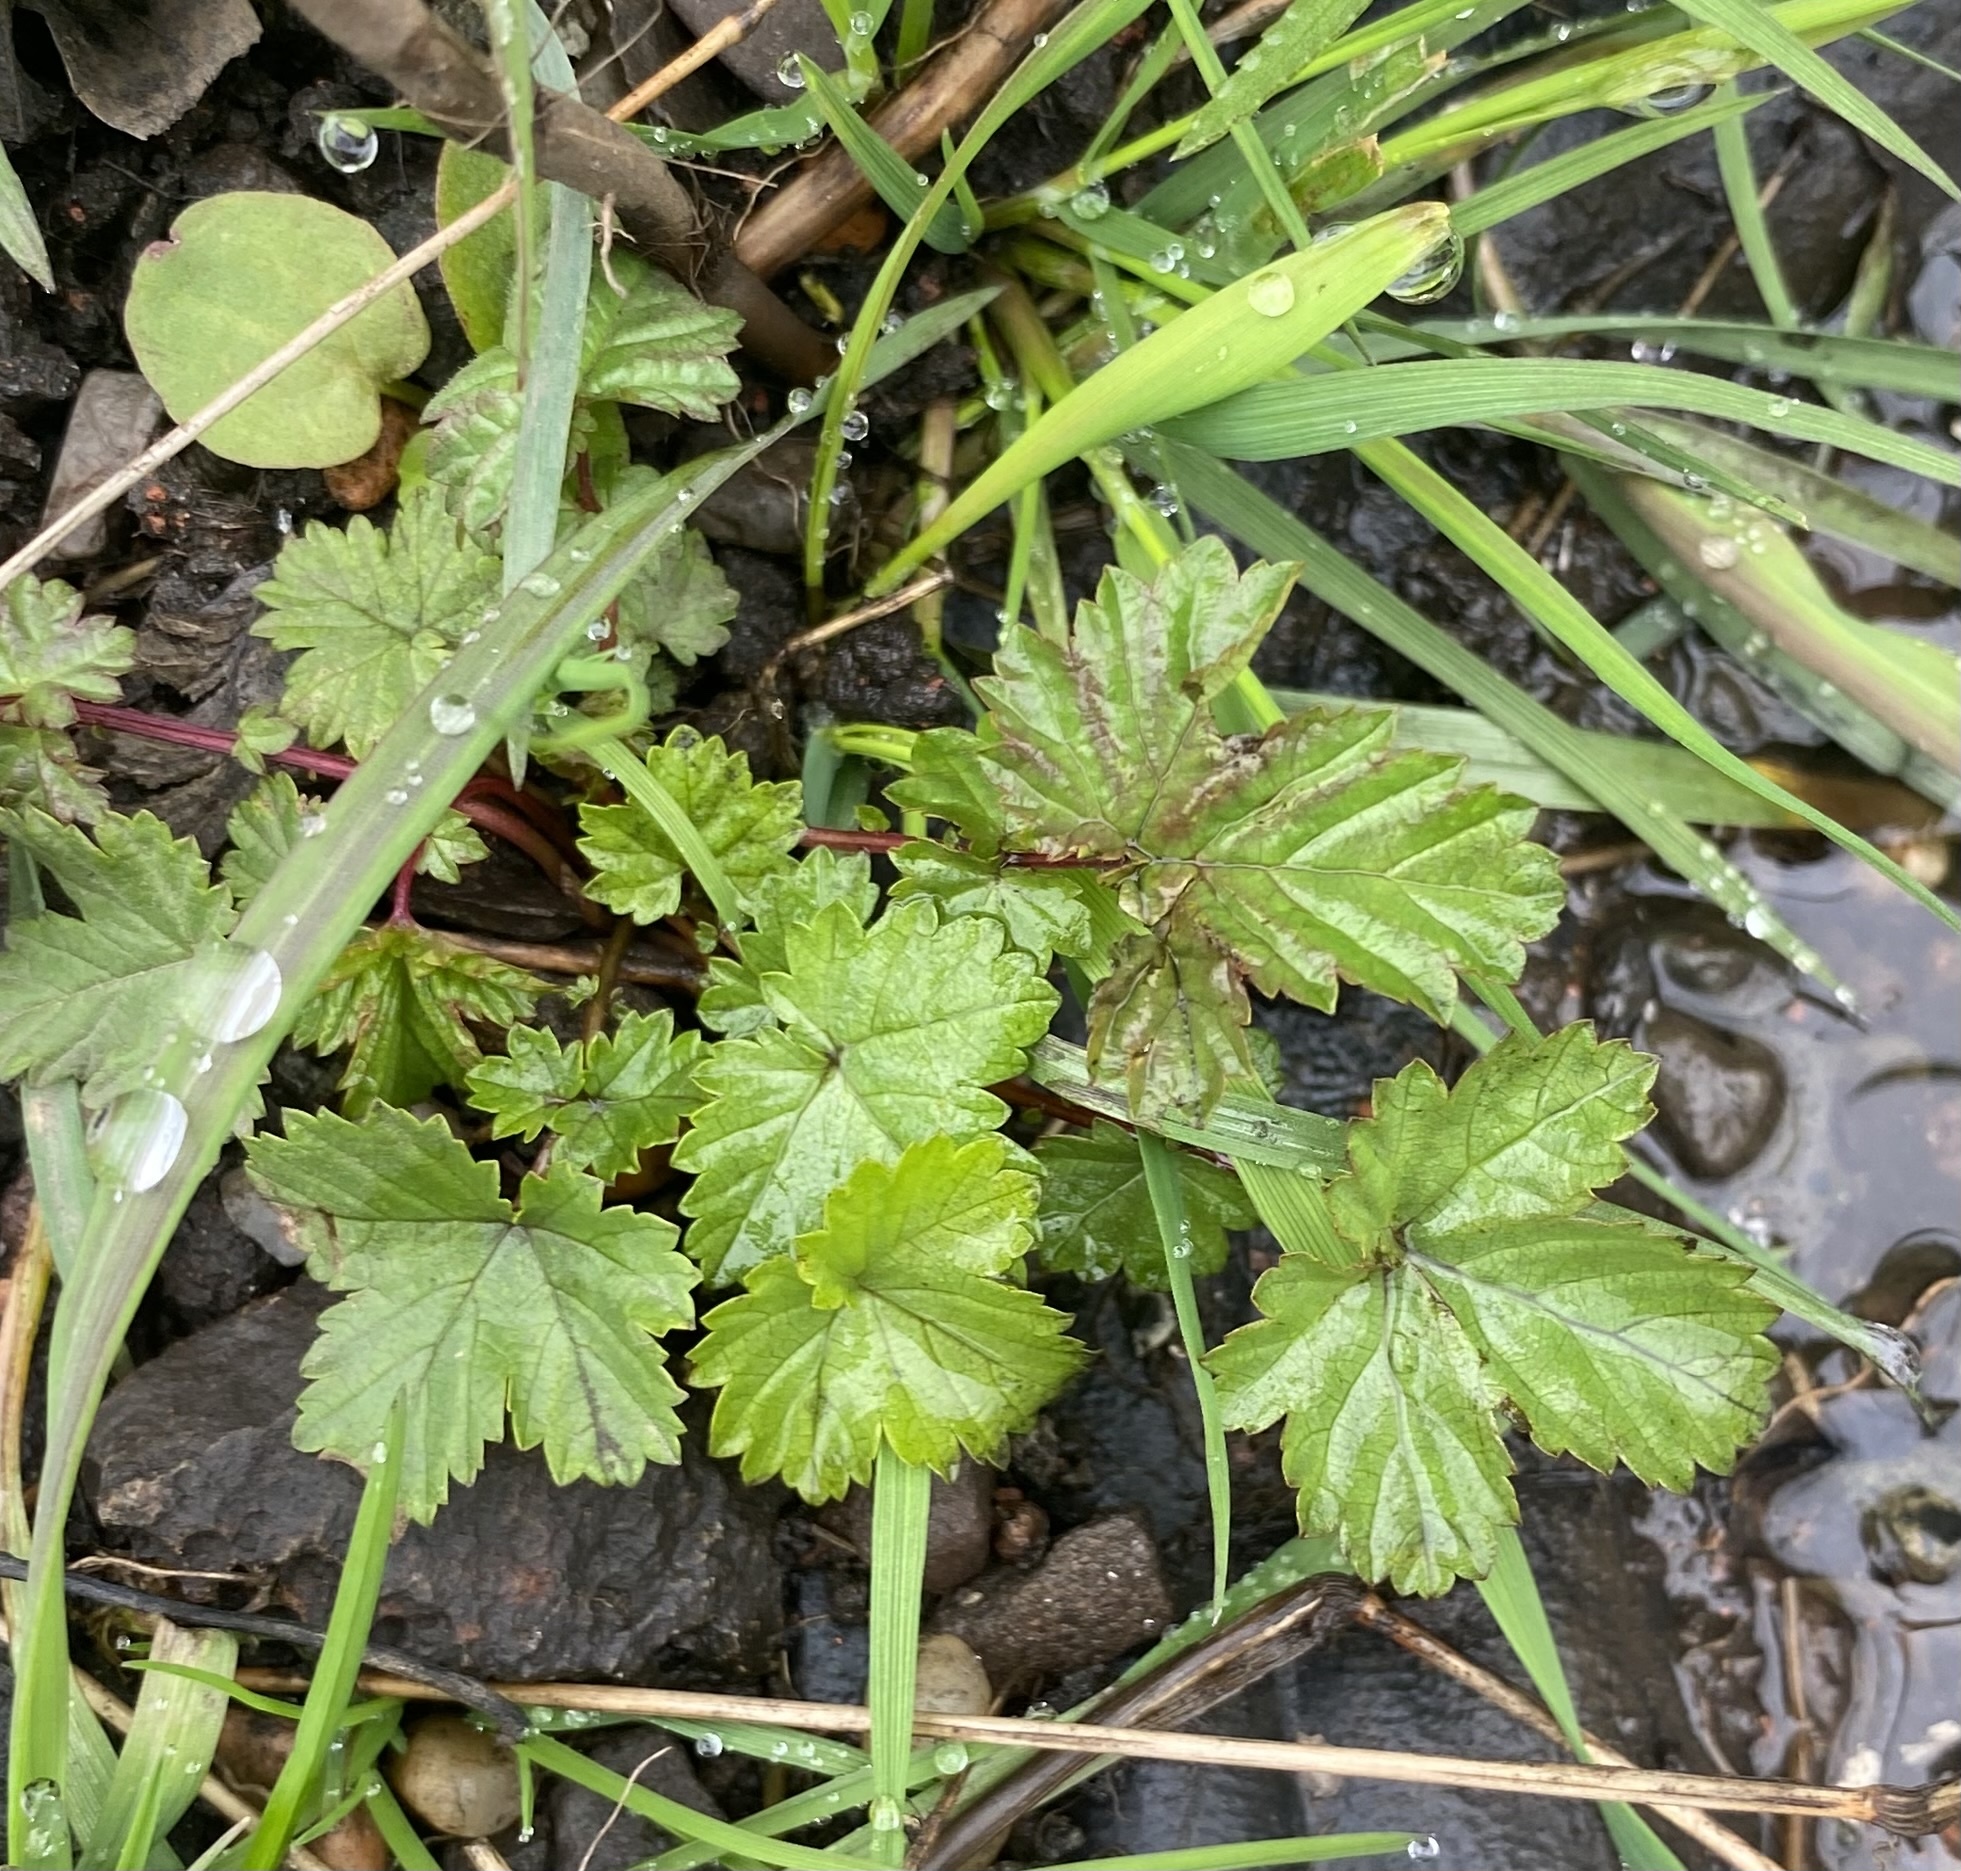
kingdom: Plantae
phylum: Tracheophyta
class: Magnoliopsida
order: Rosales
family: Rosaceae
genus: Filipendula
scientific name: Filipendula ulmaria
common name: Meadowsweet
